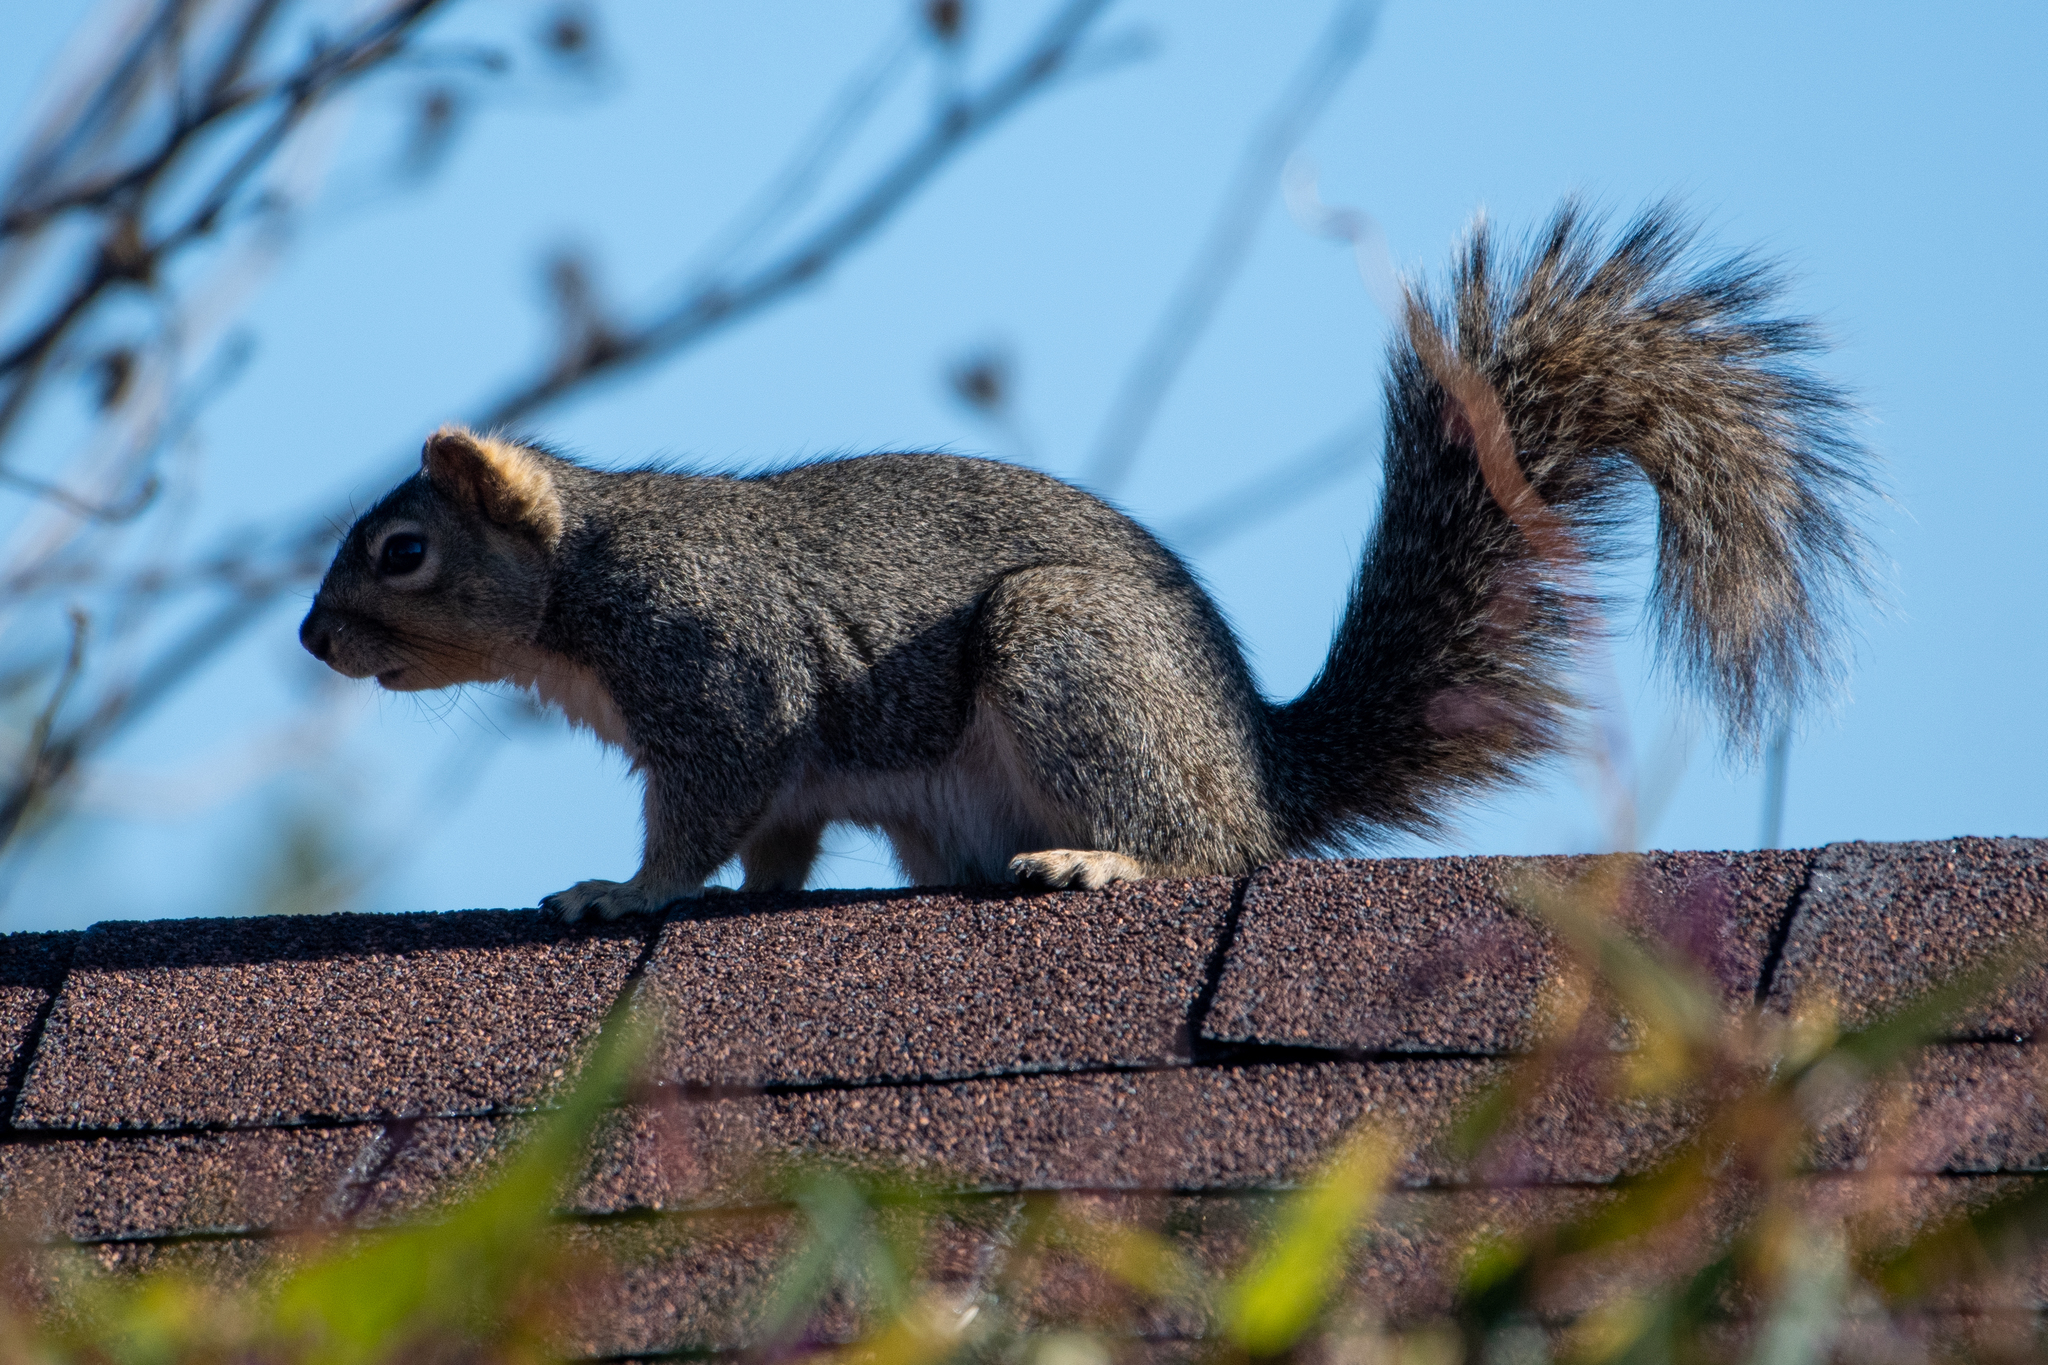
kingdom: Animalia
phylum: Chordata
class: Mammalia
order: Rodentia
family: Sciuridae
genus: Sciurus
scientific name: Sciurus niger
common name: Fox squirrel
